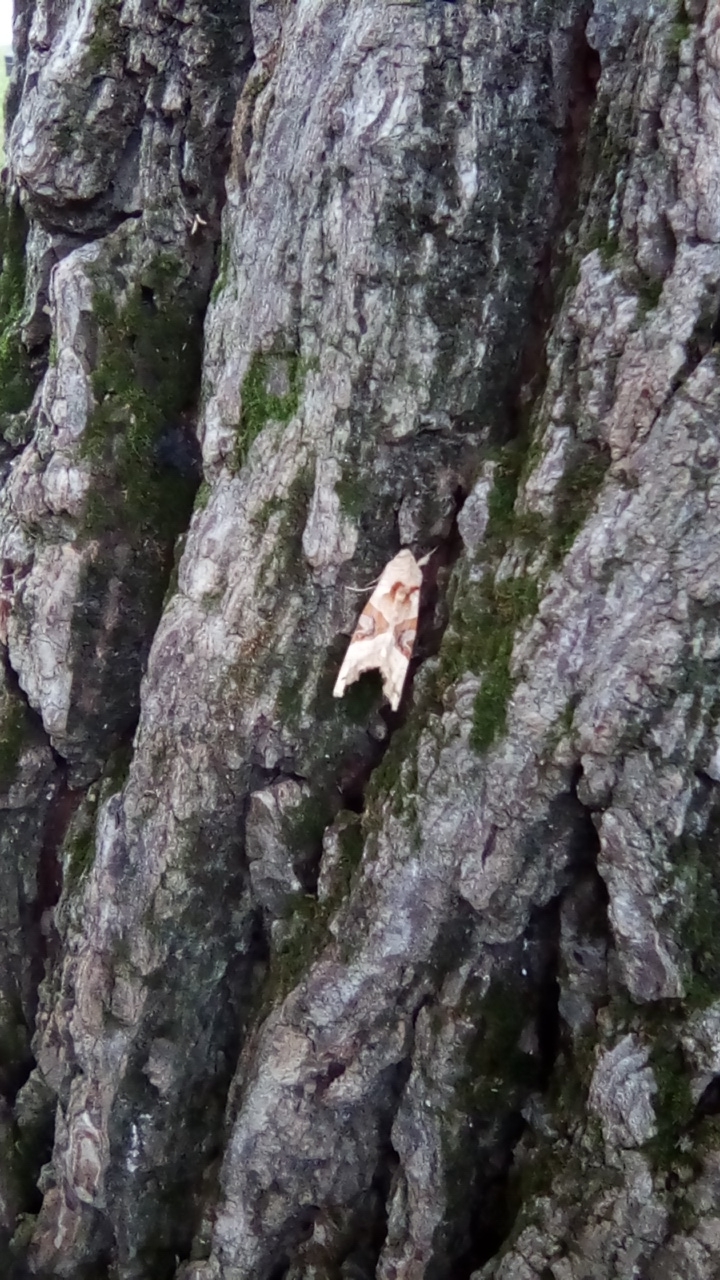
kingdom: Animalia
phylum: Arthropoda
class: Insecta
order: Lepidoptera
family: Noctuidae
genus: Phlogophora
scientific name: Phlogophora meticulosa
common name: Angle shades
